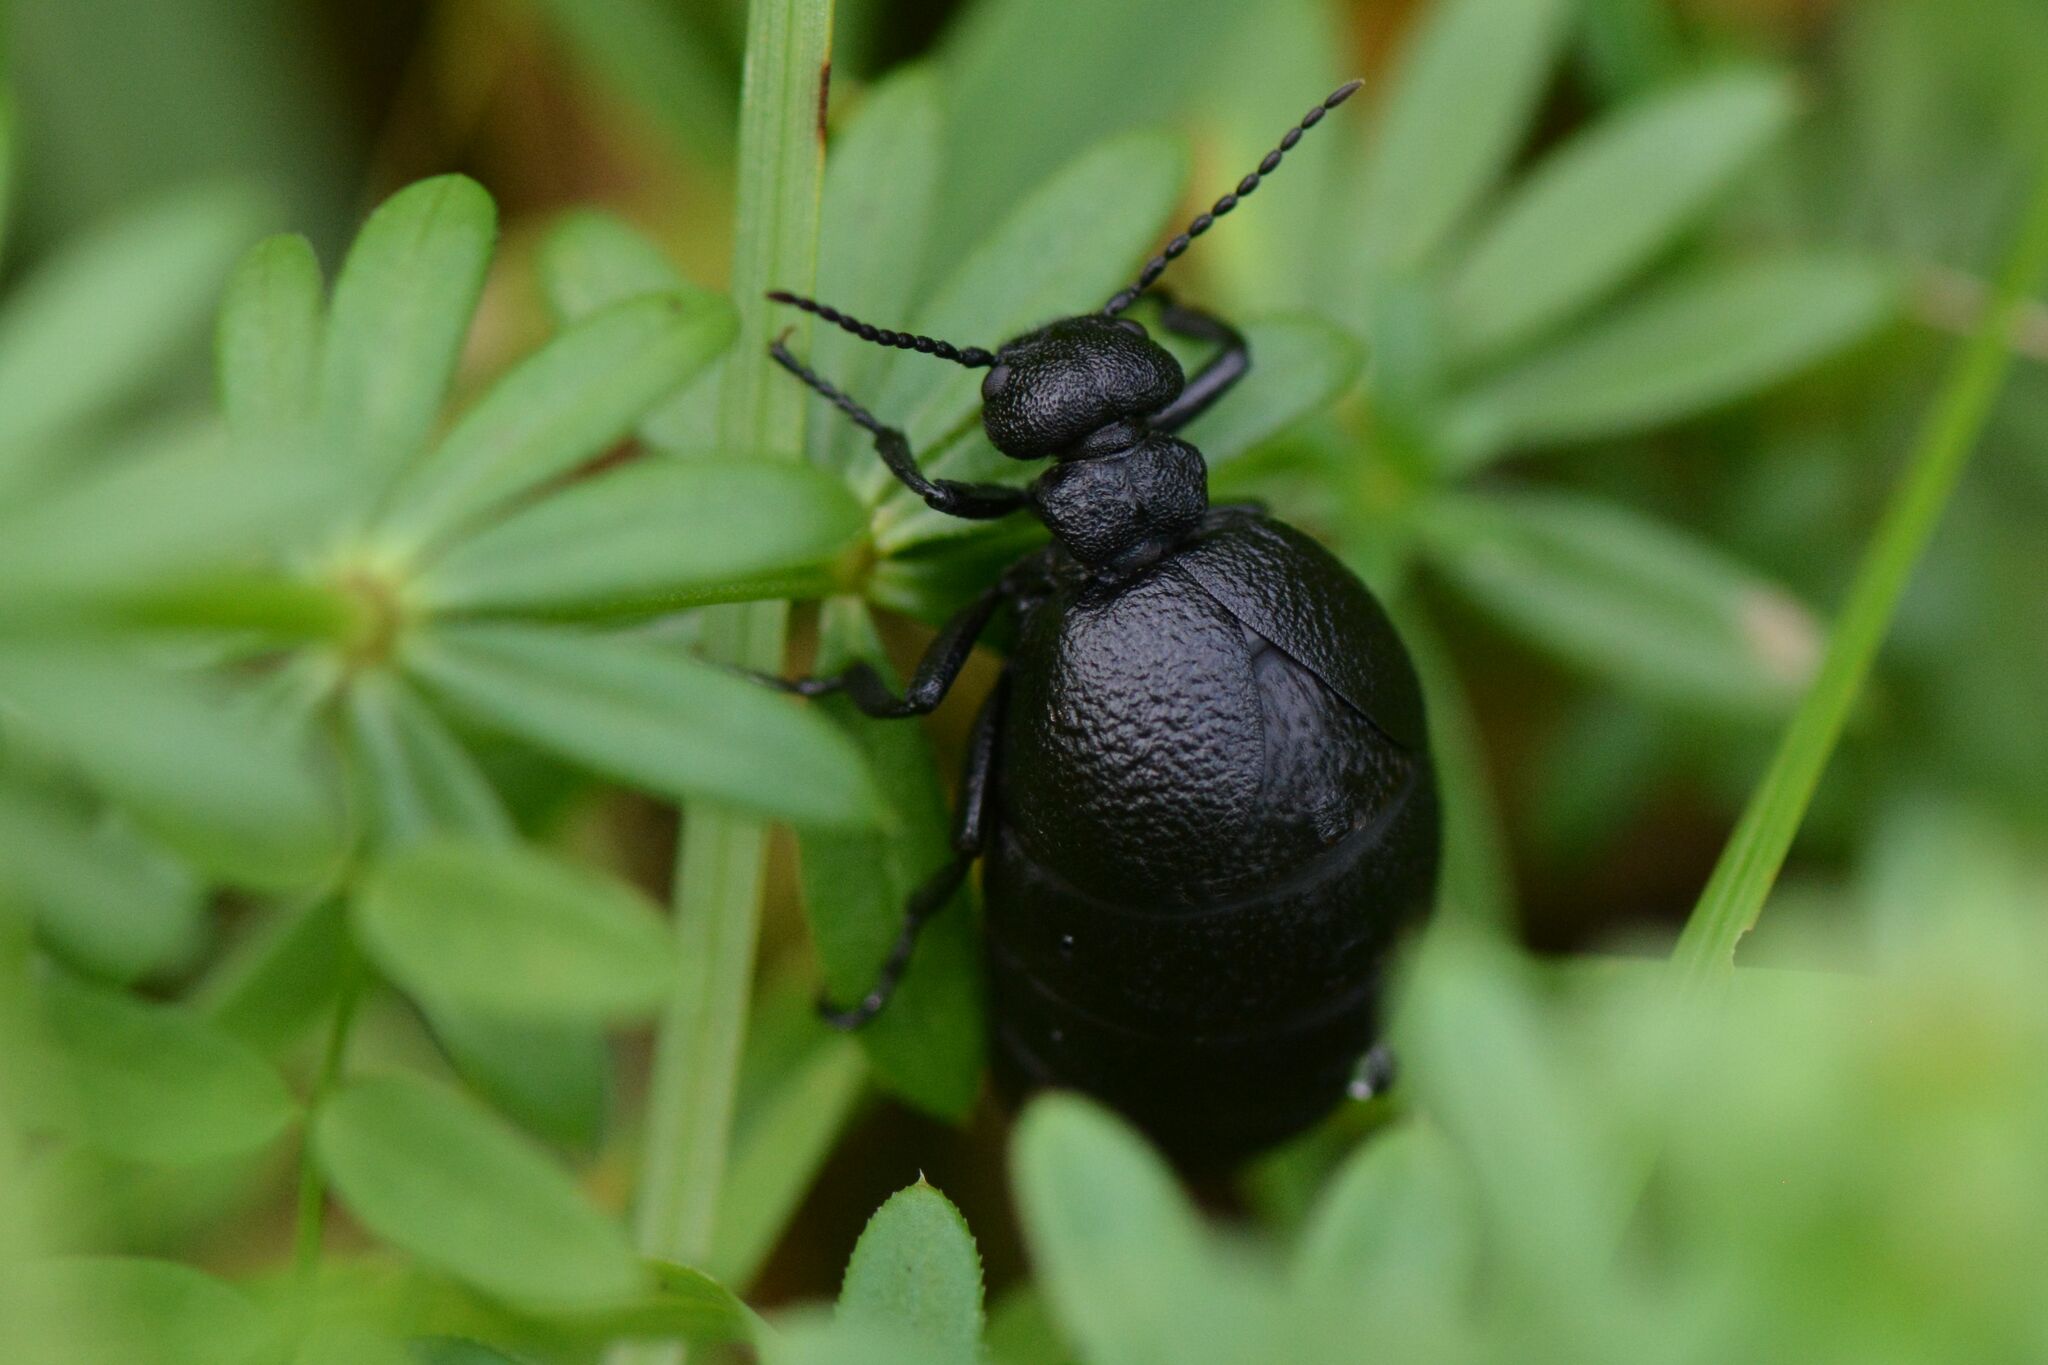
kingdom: Animalia
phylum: Arthropoda
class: Insecta
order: Coleoptera
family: Meloidae
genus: Meloe
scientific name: Meloe rugosus
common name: Rugged oil-beetle
